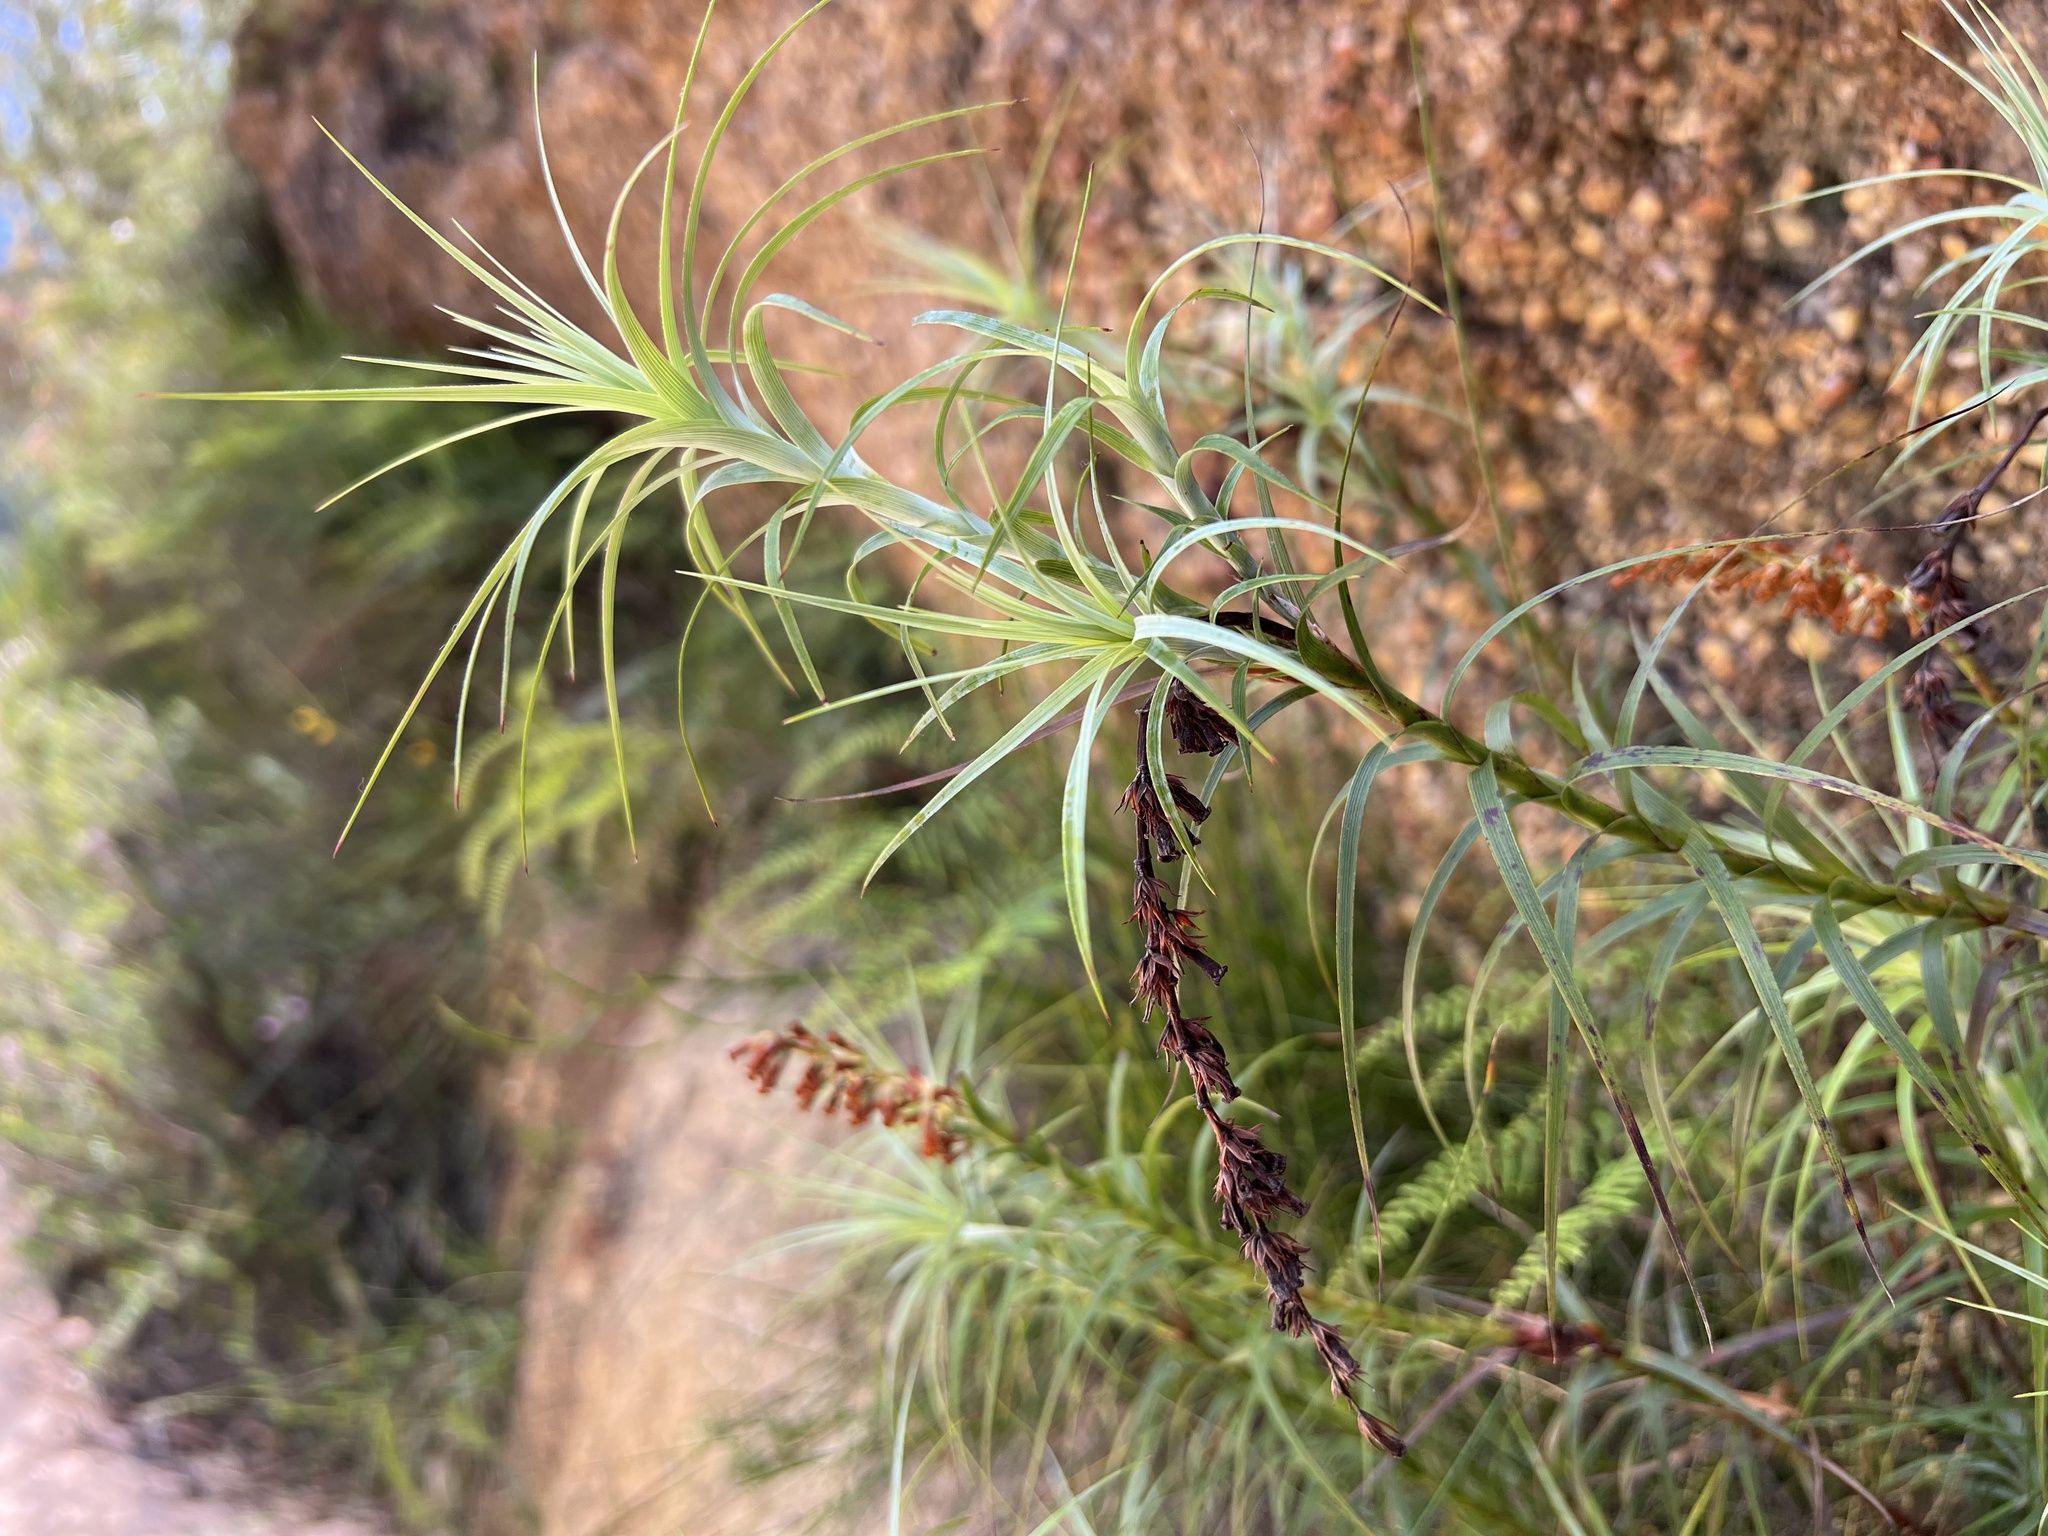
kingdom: Plantae
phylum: Tracheophyta
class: Magnoliopsida
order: Ericales
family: Ericaceae
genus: Dracophyllum
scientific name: Dracophyllum secundum
